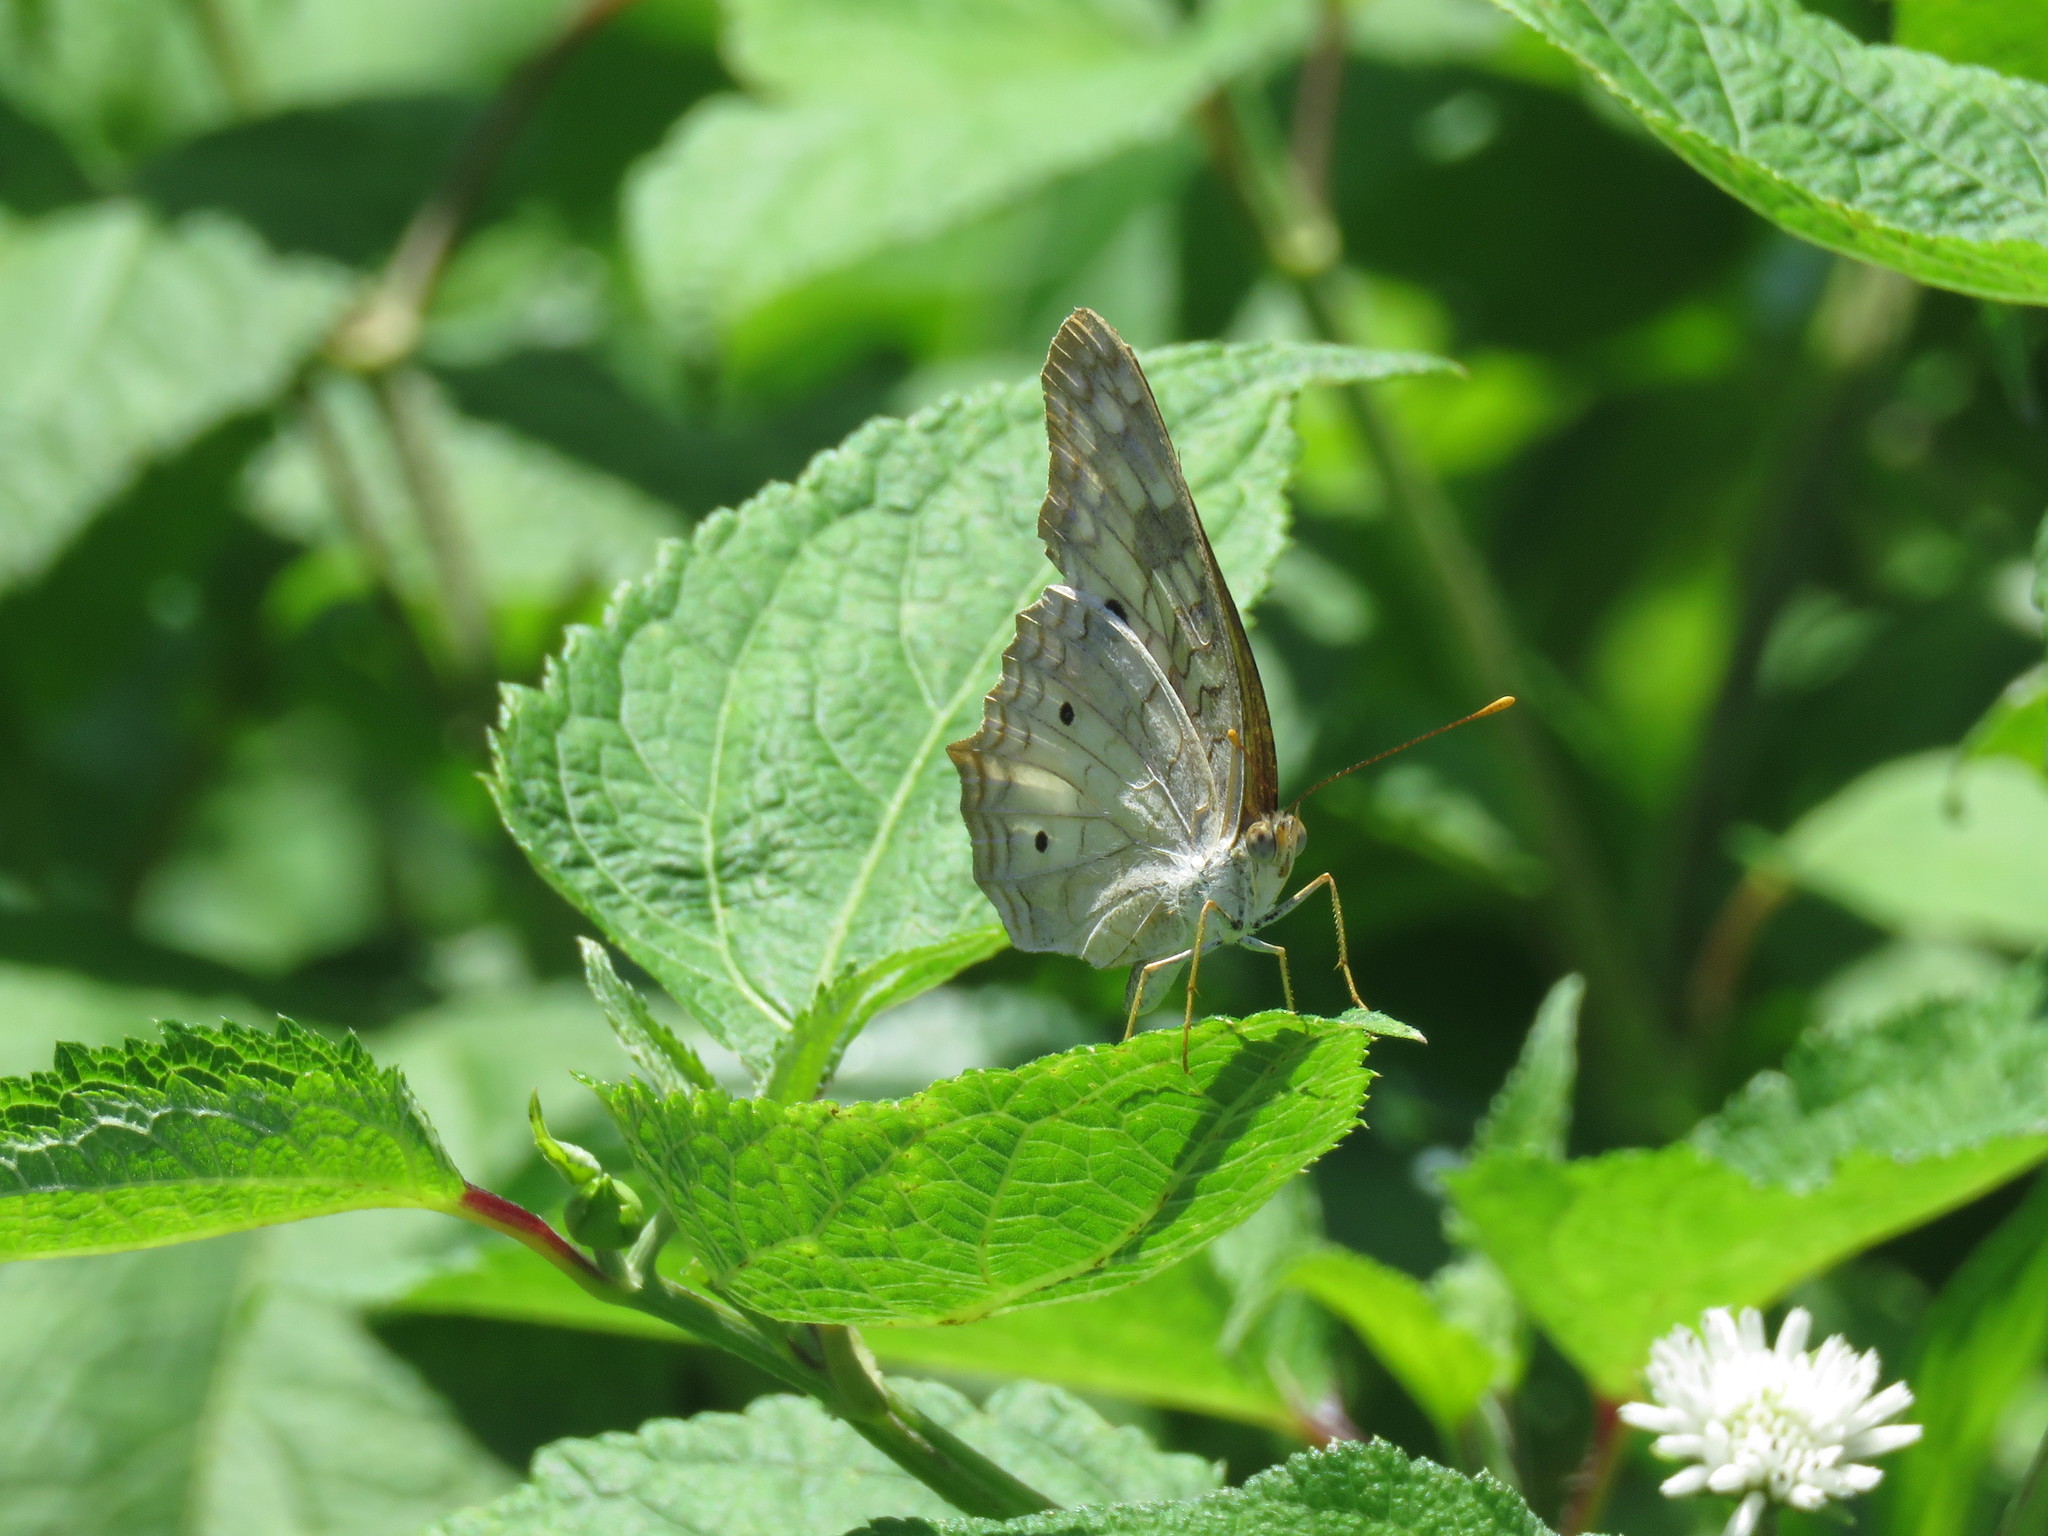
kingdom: Animalia
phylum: Arthropoda
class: Insecta
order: Lepidoptera
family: Nymphalidae
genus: Anartia
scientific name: Anartia jatrophae
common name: White peacock
